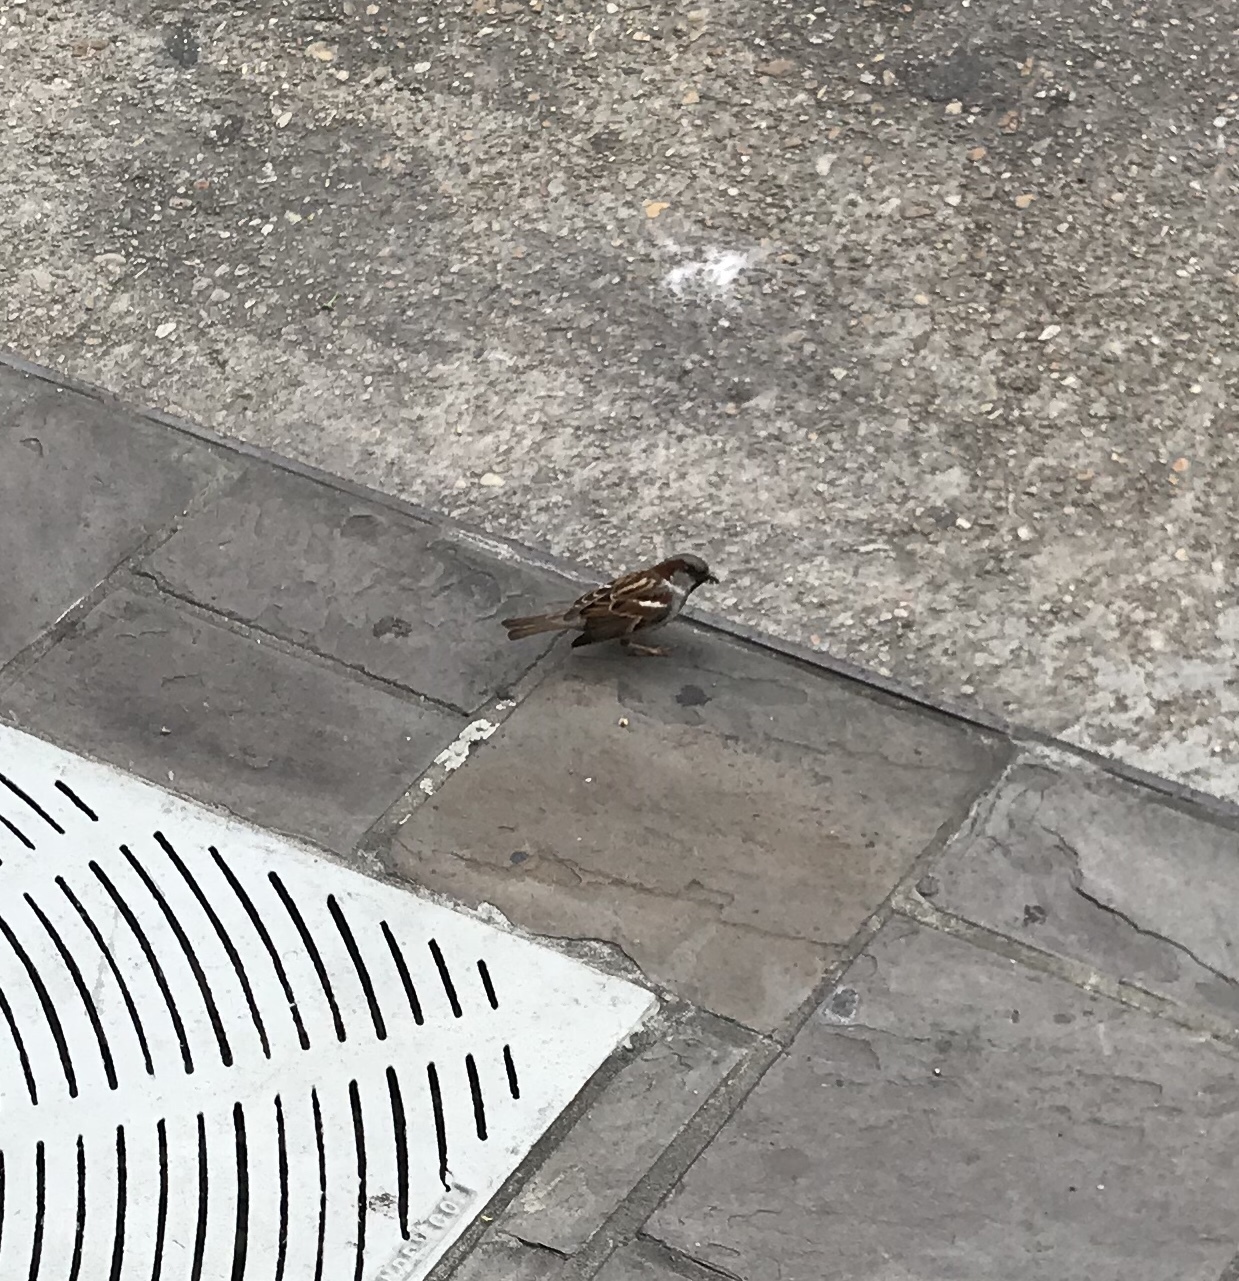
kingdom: Animalia
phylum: Chordata
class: Aves
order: Passeriformes
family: Passeridae
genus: Passer
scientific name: Passer domesticus
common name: House sparrow
